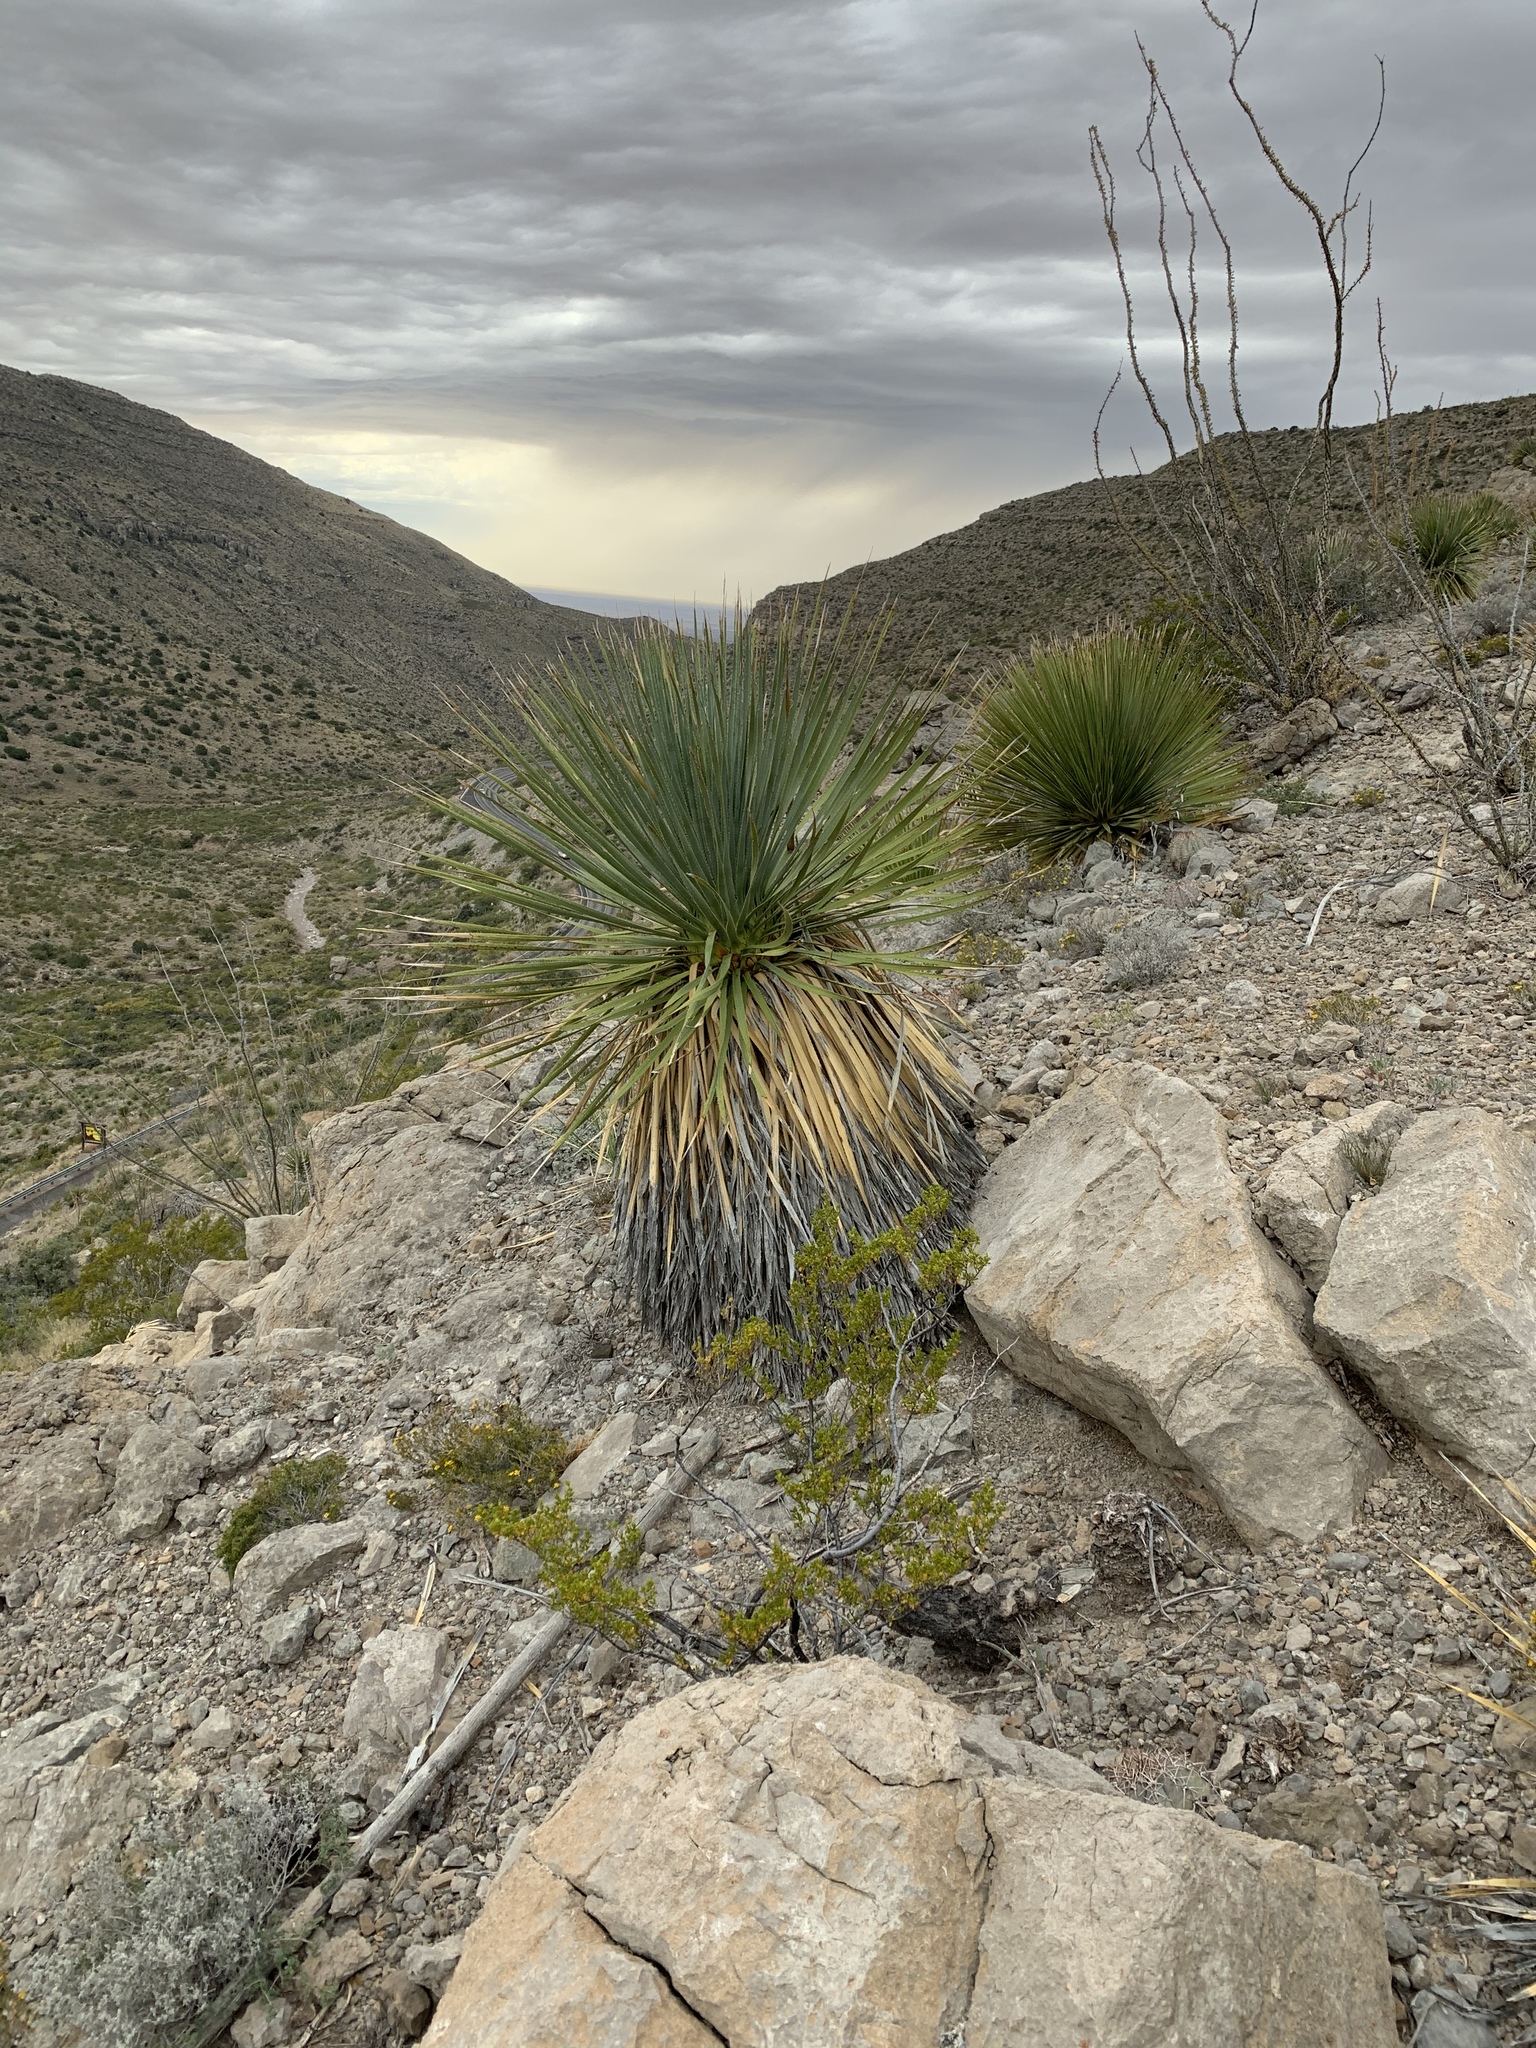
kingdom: Plantae
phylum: Tracheophyta
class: Liliopsida
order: Asparagales
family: Asparagaceae
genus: Dasylirion
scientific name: Dasylirion wheeleri
